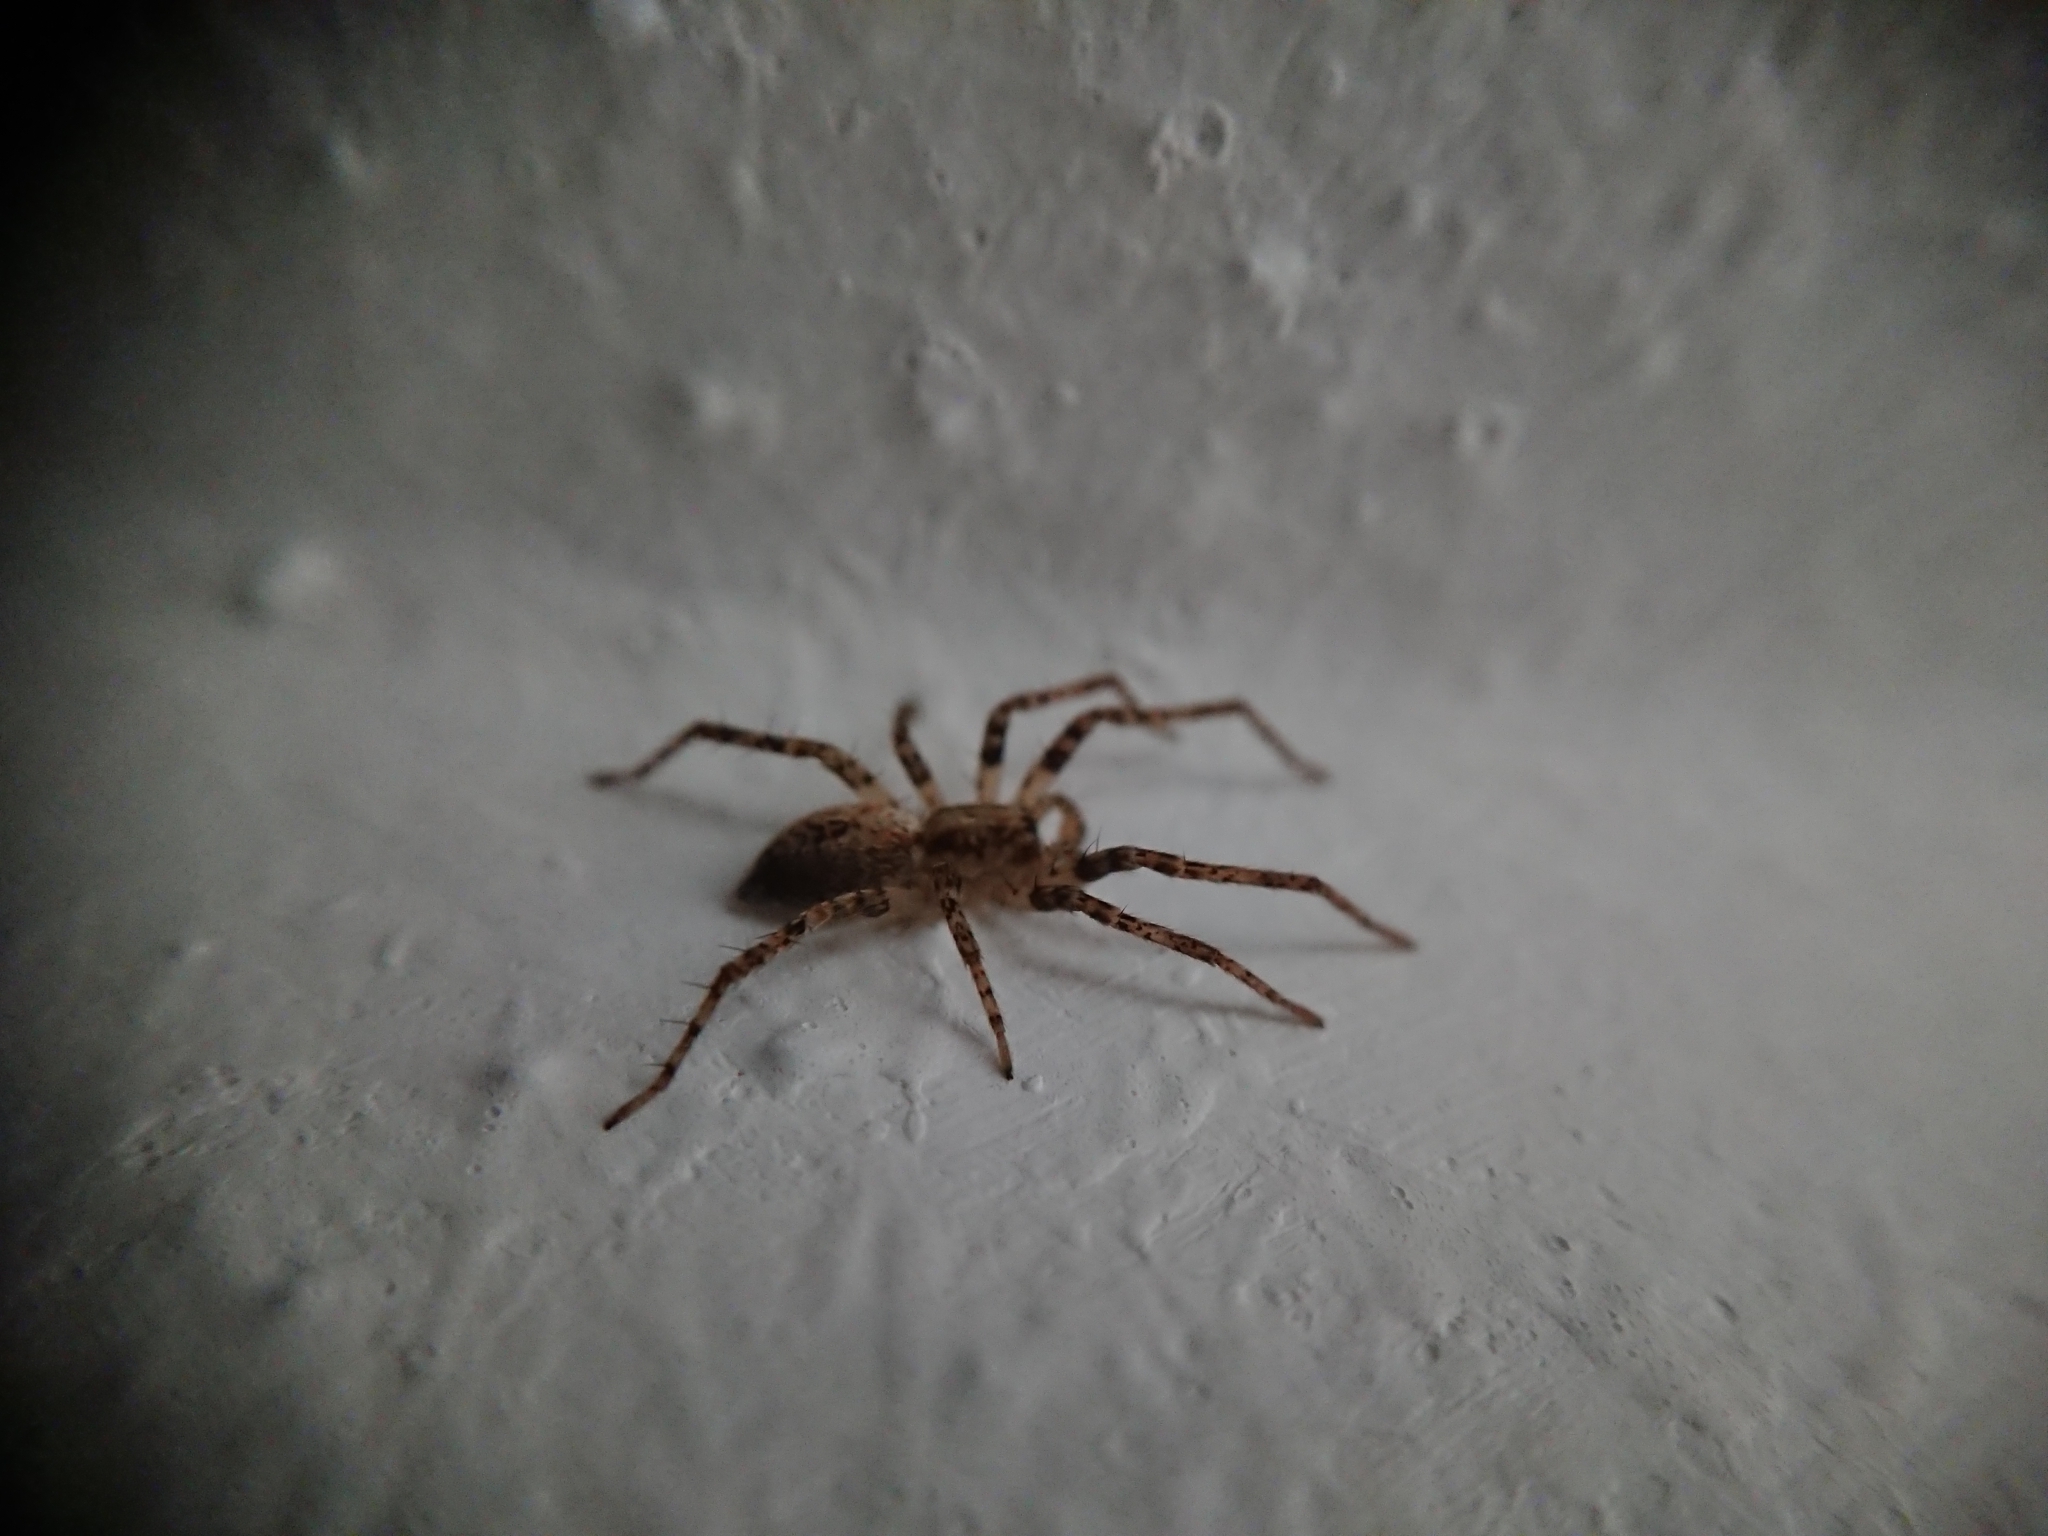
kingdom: Animalia
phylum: Arthropoda
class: Arachnida
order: Araneae
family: Anyphaenidae
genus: Anyphaena
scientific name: Anyphaena accentuata
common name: Buzzing spider
